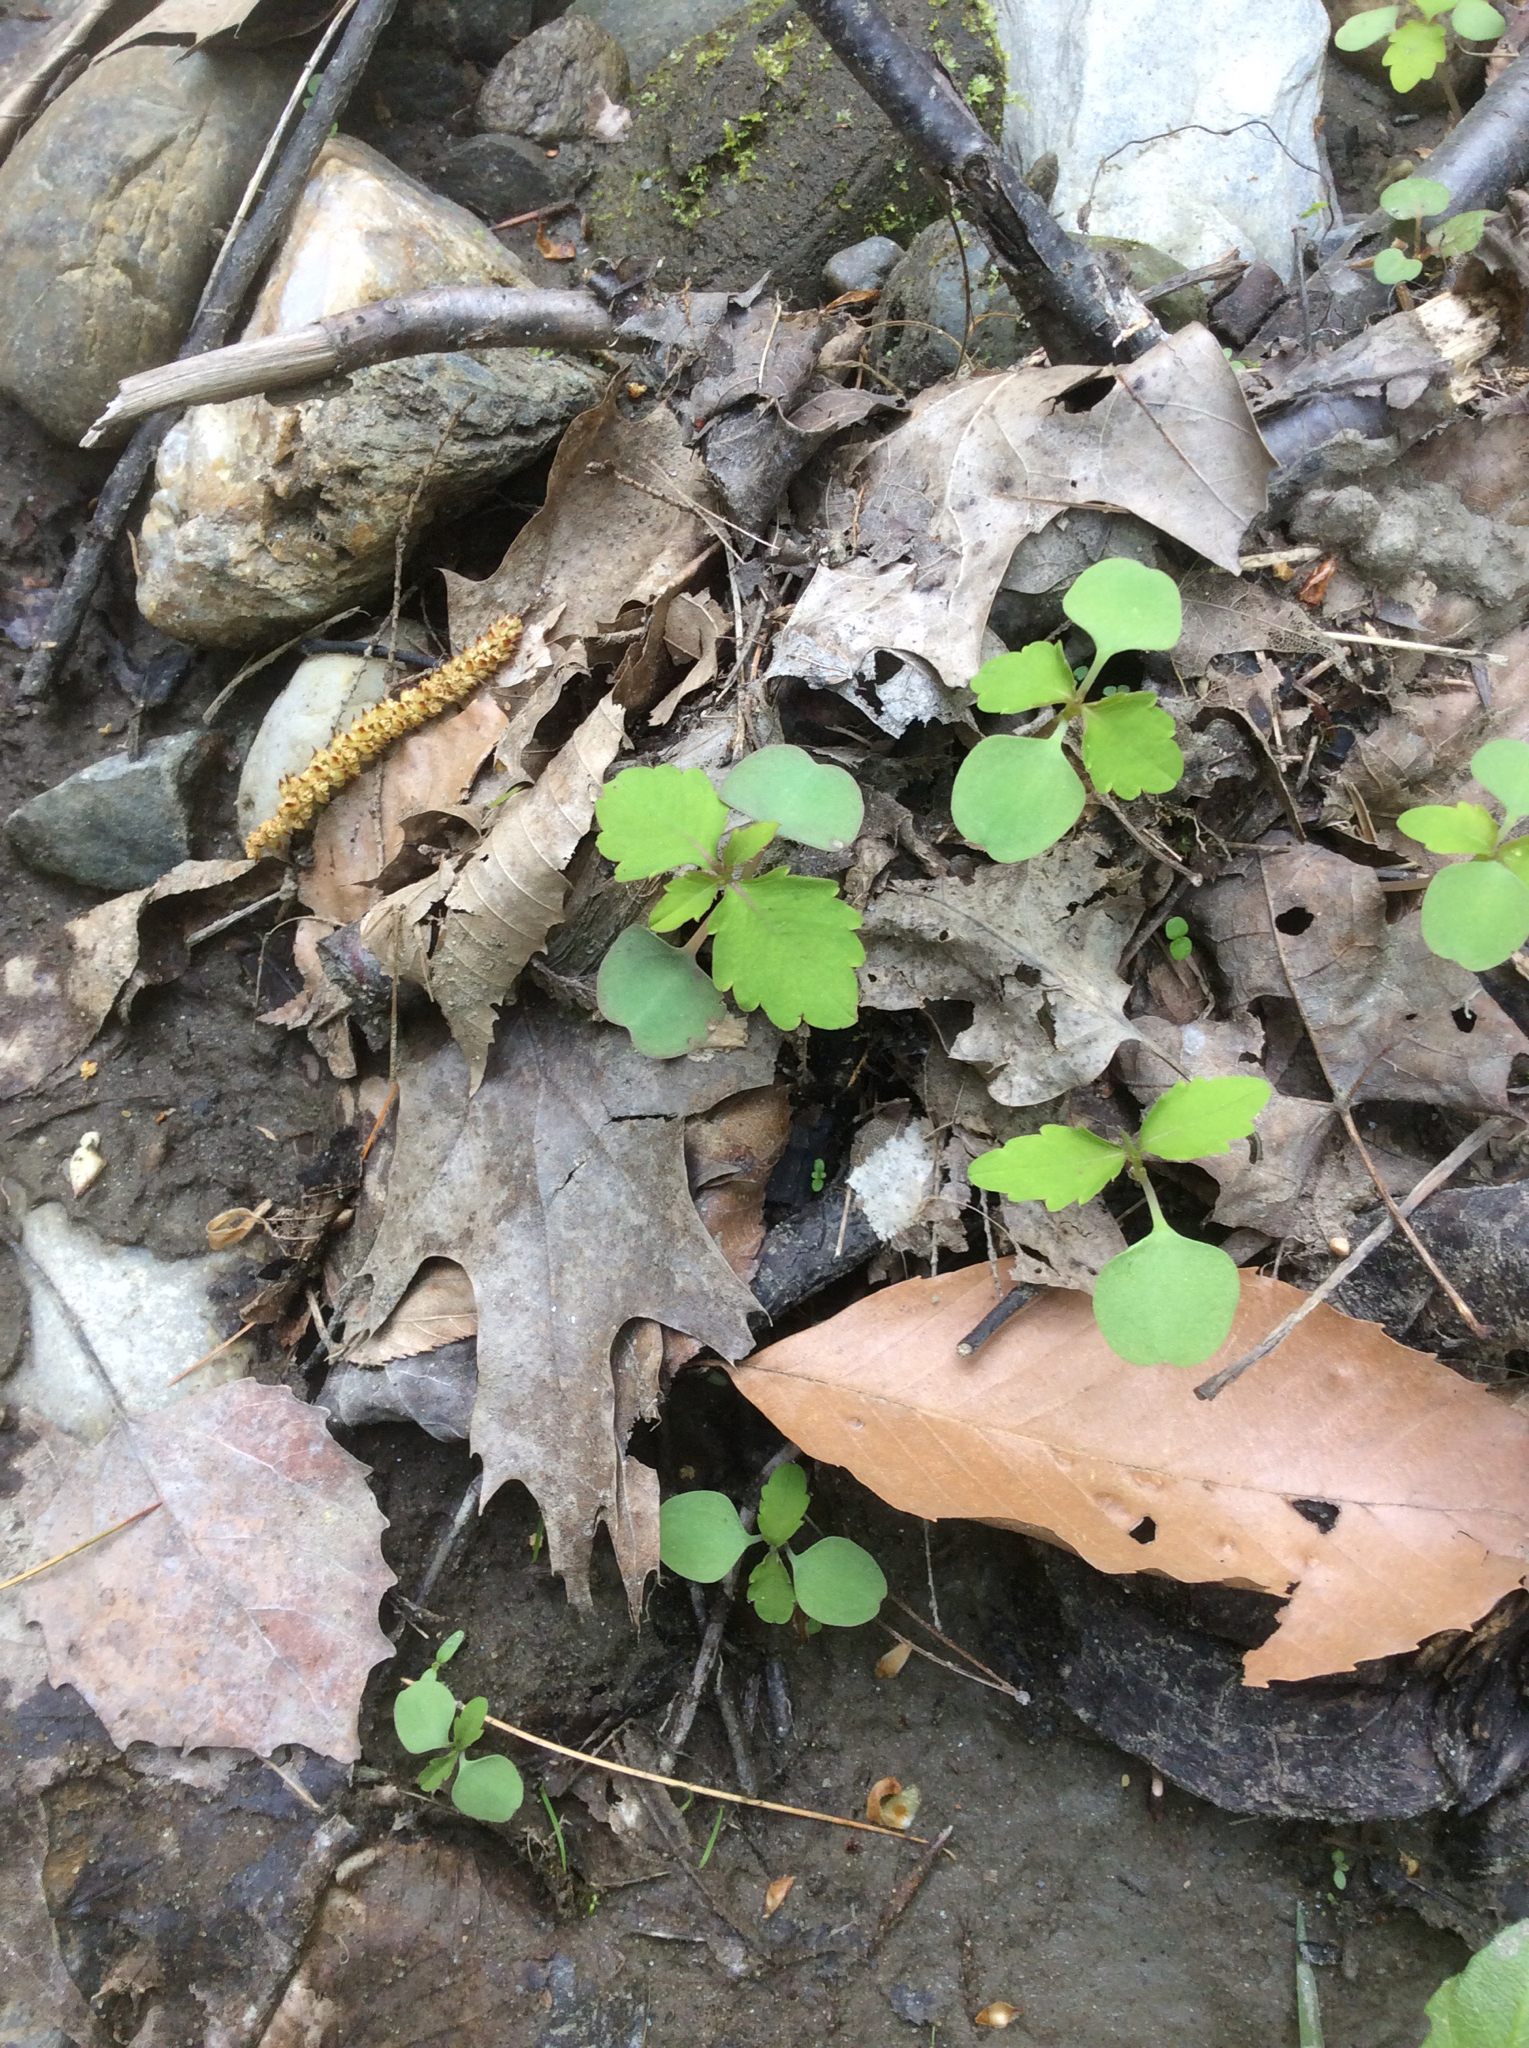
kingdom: Plantae
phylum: Tracheophyta
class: Magnoliopsida
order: Ericales
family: Balsaminaceae
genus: Impatiens
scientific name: Impatiens capensis
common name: Orange balsam
